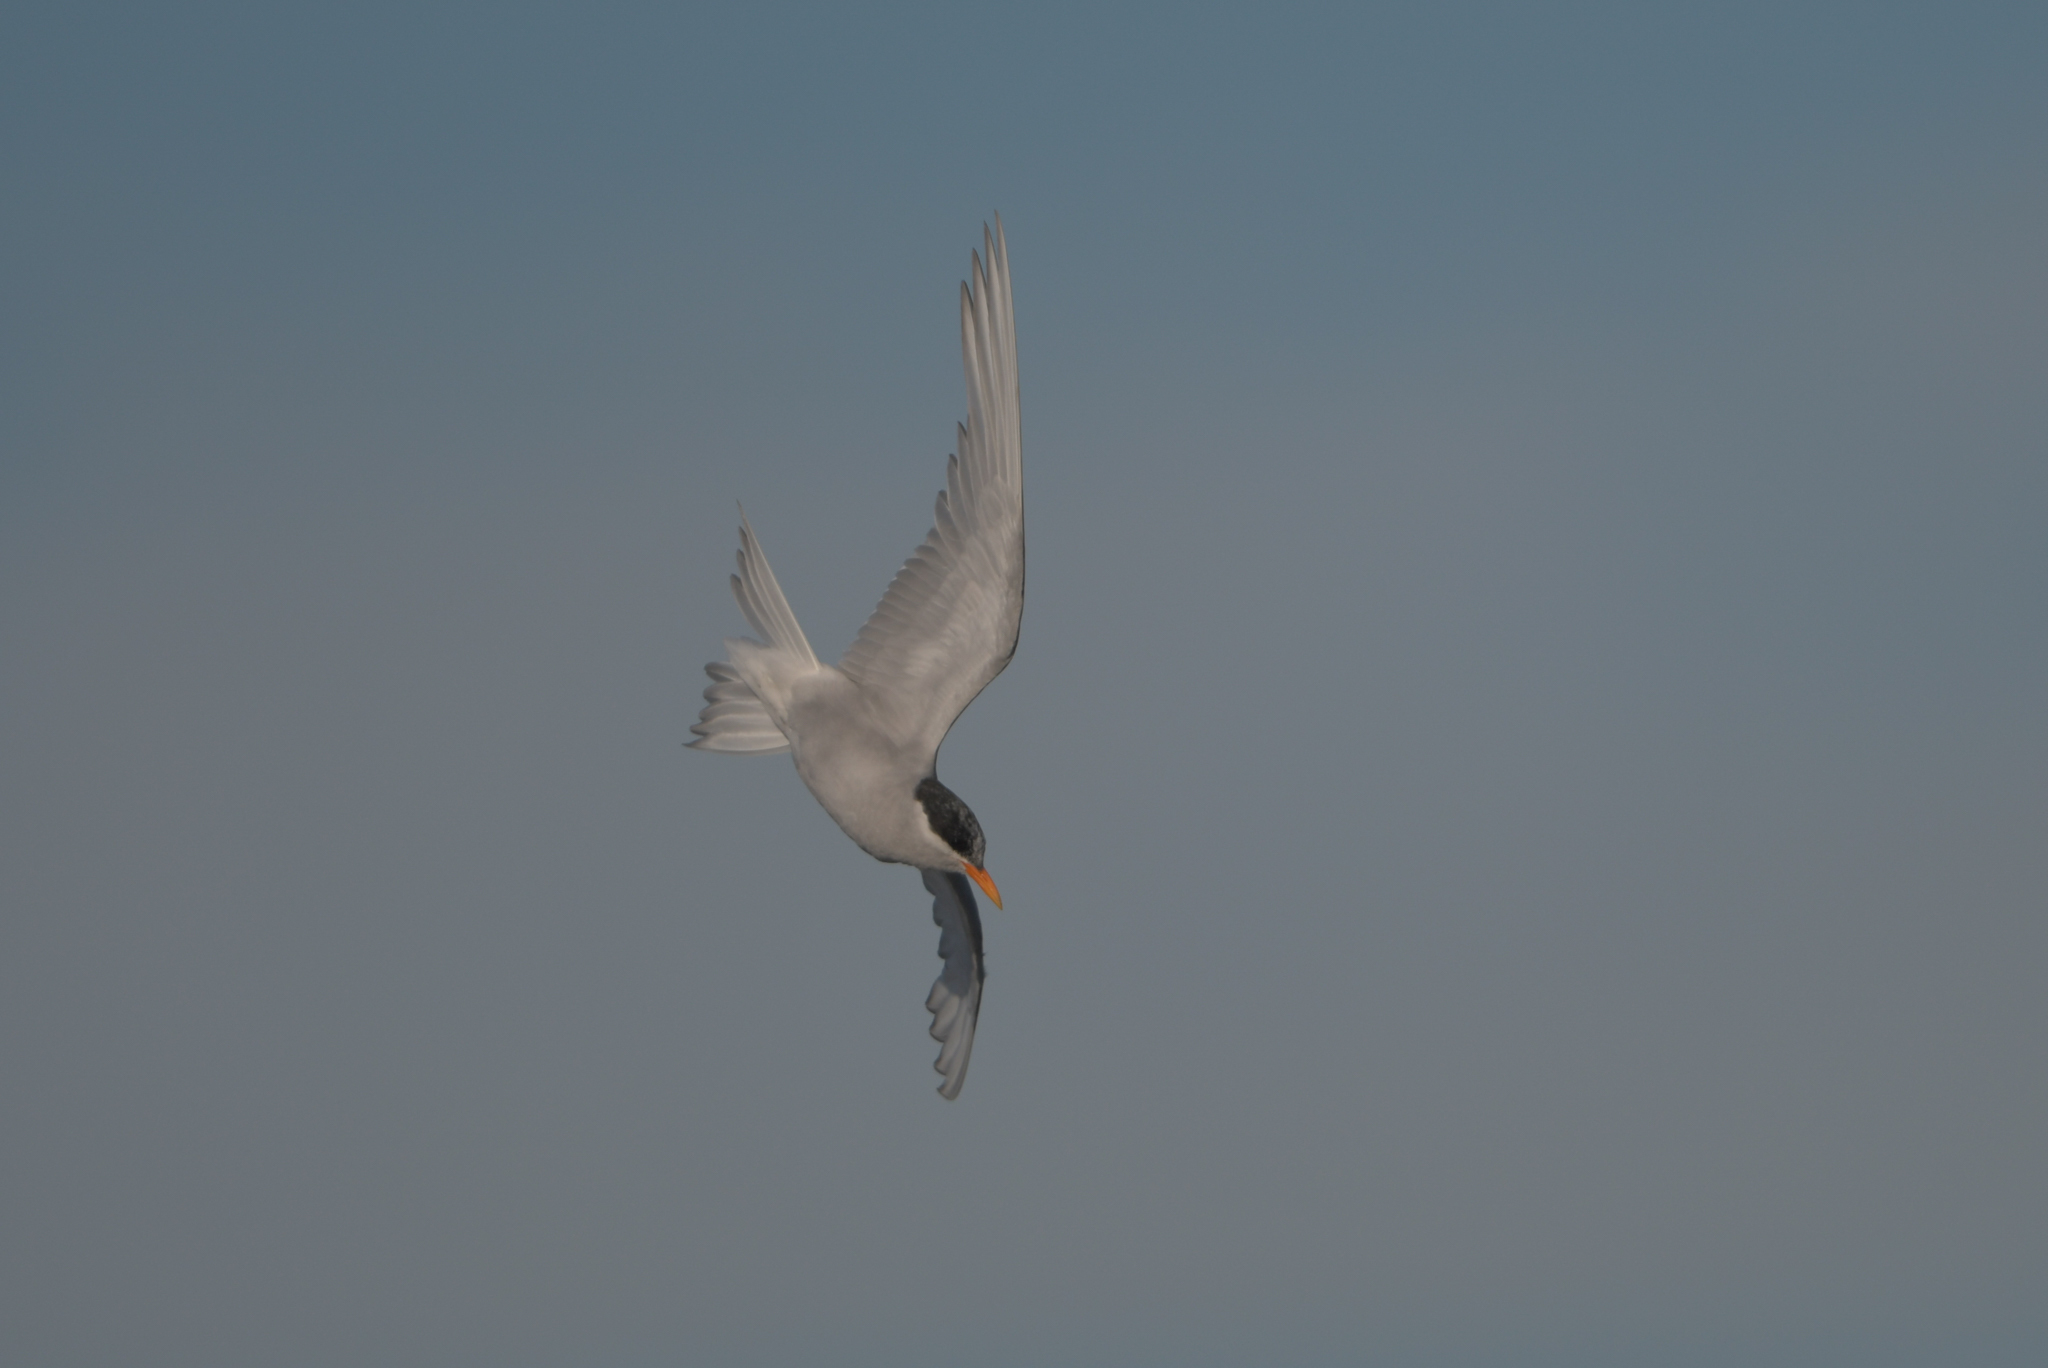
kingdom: Animalia
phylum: Chordata
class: Aves
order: Charadriiformes
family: Laridae
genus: Chlidonias
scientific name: Chlidonias albostriatus
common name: Black-fronted tern
